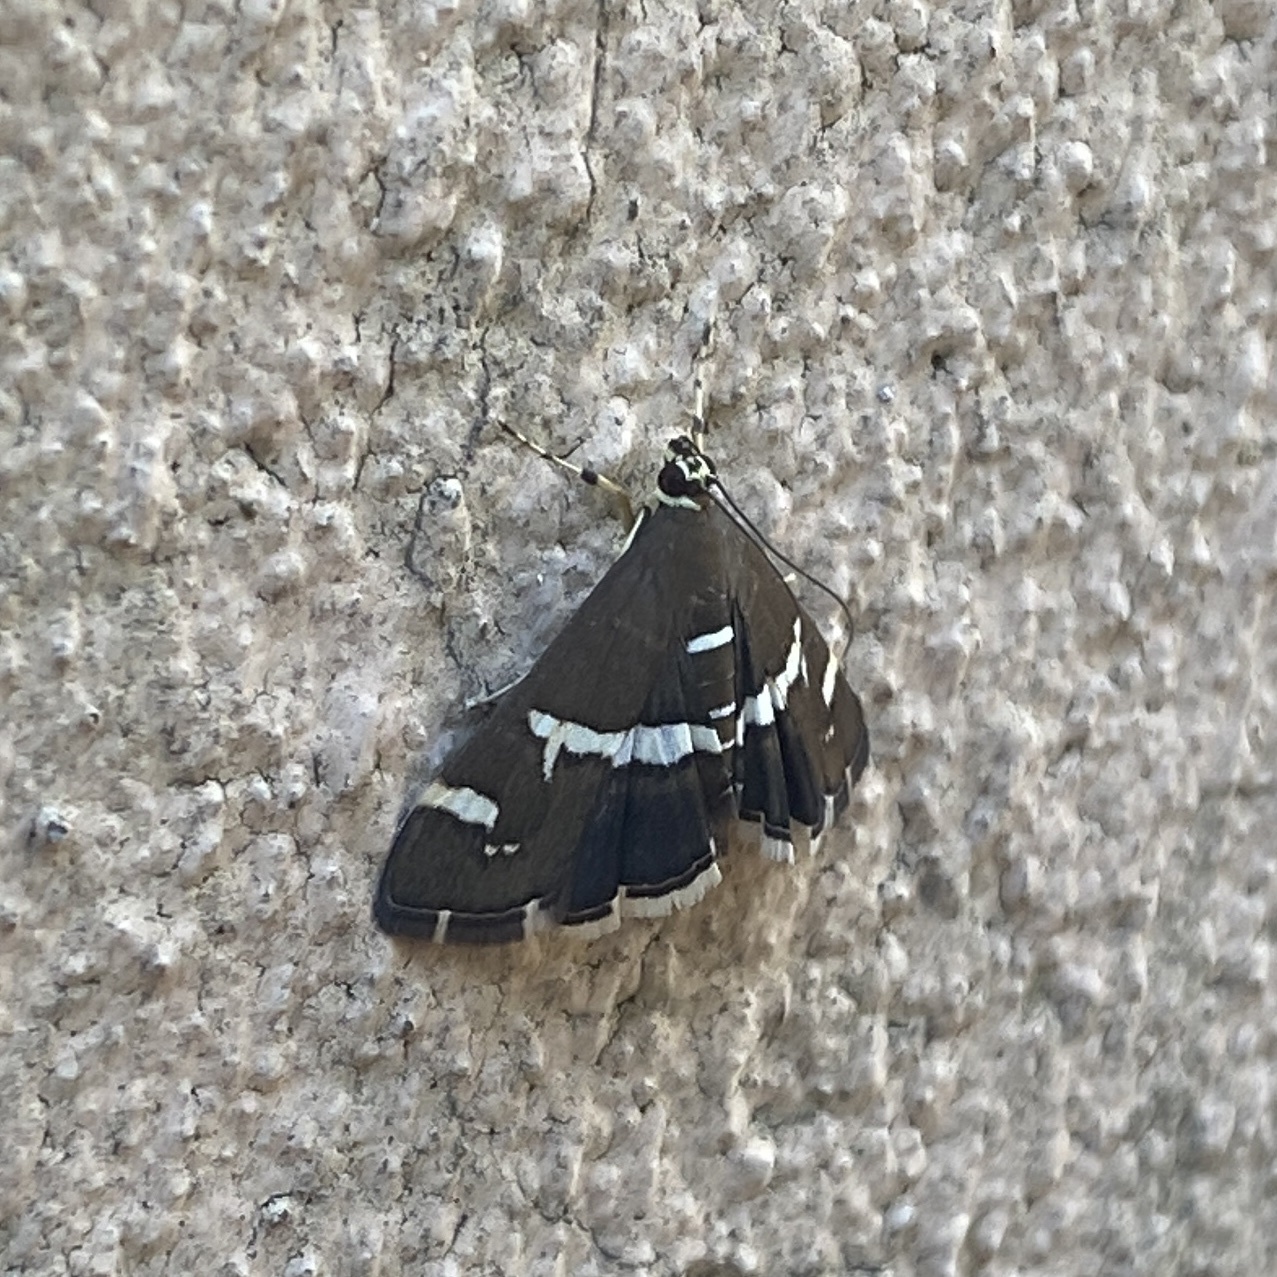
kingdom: Animalia
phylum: Arthropoda
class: Insecta
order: Lepidoptera
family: Crambidae
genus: Spoladea
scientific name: Spoladea recurvalis
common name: Beet webworm moth
